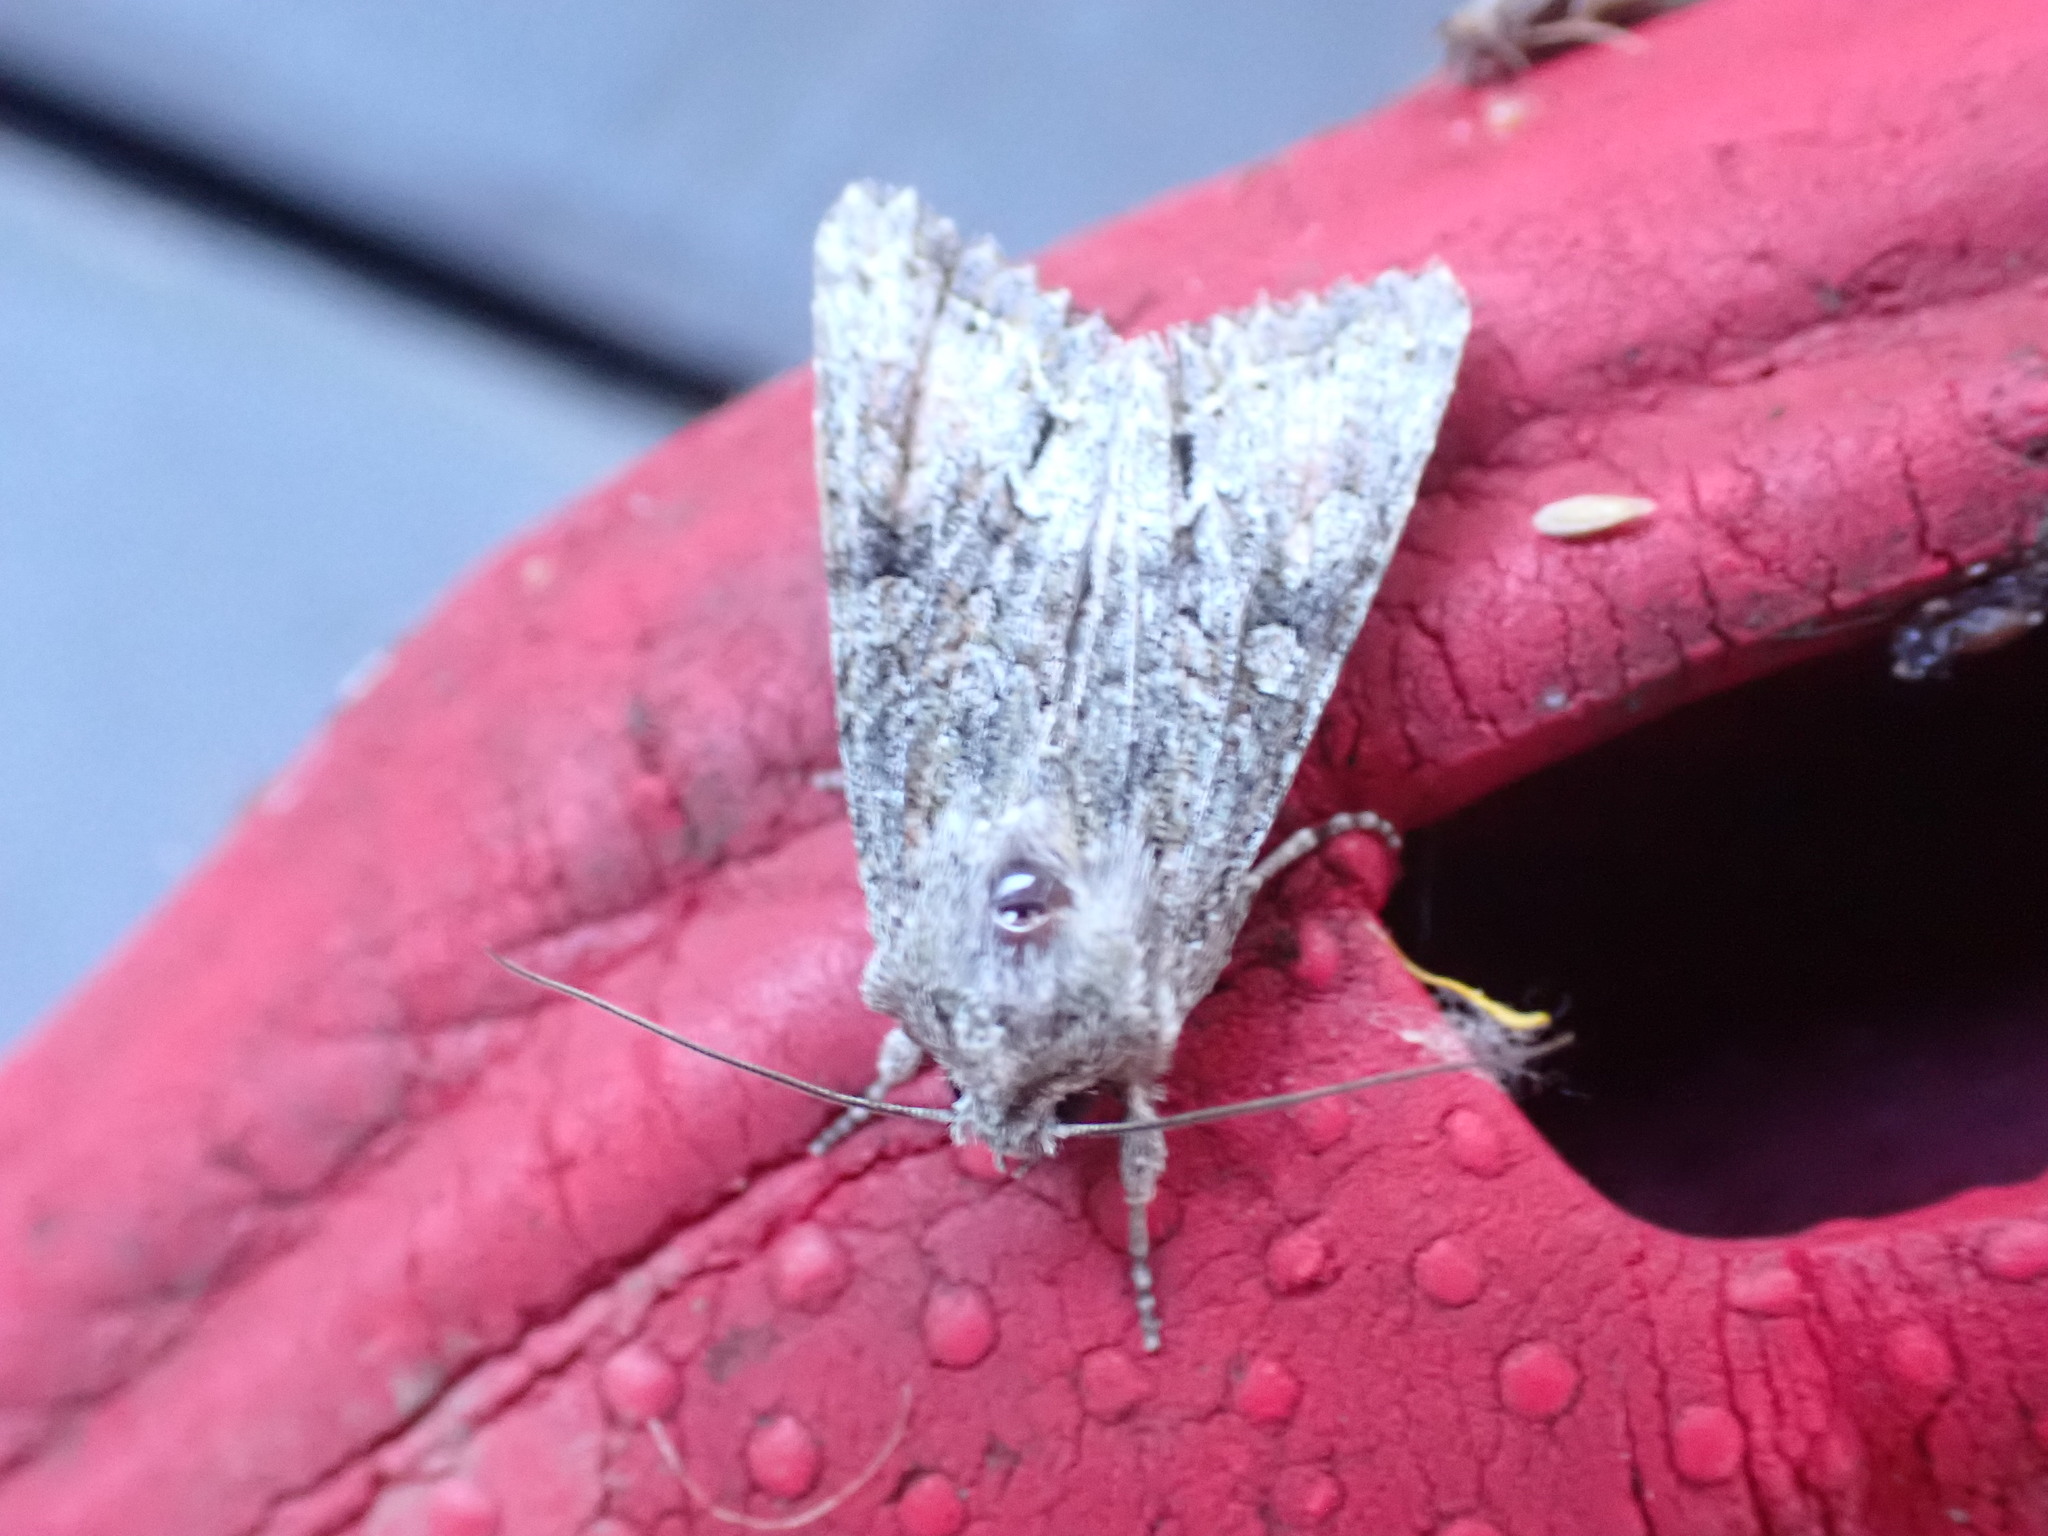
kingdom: Animalia
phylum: Arthropoda
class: Insecta
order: Lepidoptera
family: Noctuidae
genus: Ichneutica
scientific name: Ichneutica mutans
